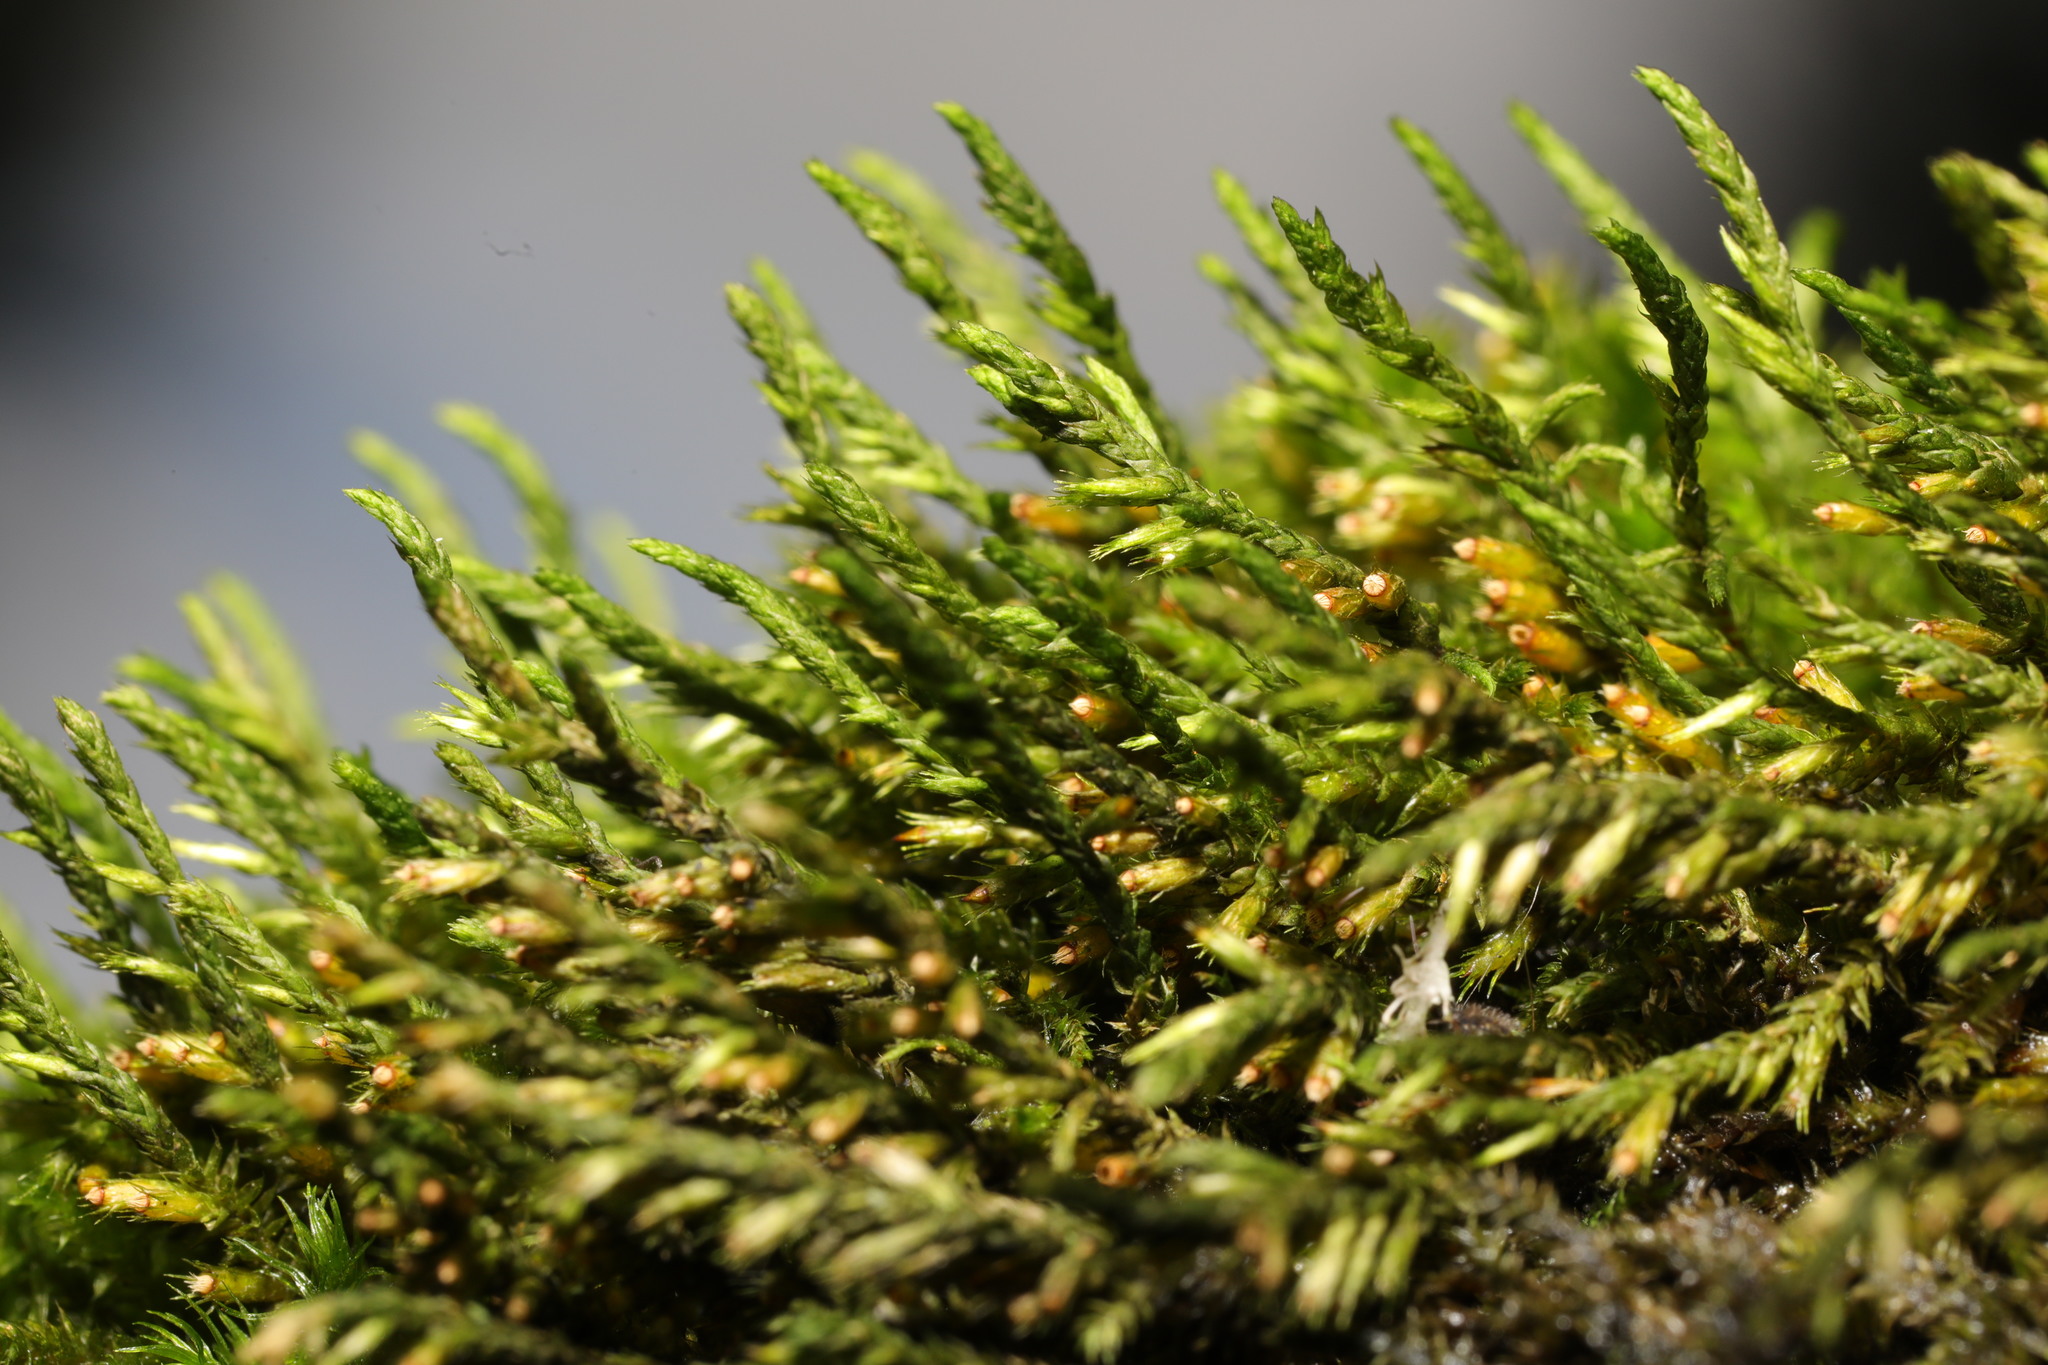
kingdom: Plantae
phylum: Bryophyta
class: Bryopsida
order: Hypnales
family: Cryphaeaceae
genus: Cryphaea
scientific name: Cryphaea heteromalla
